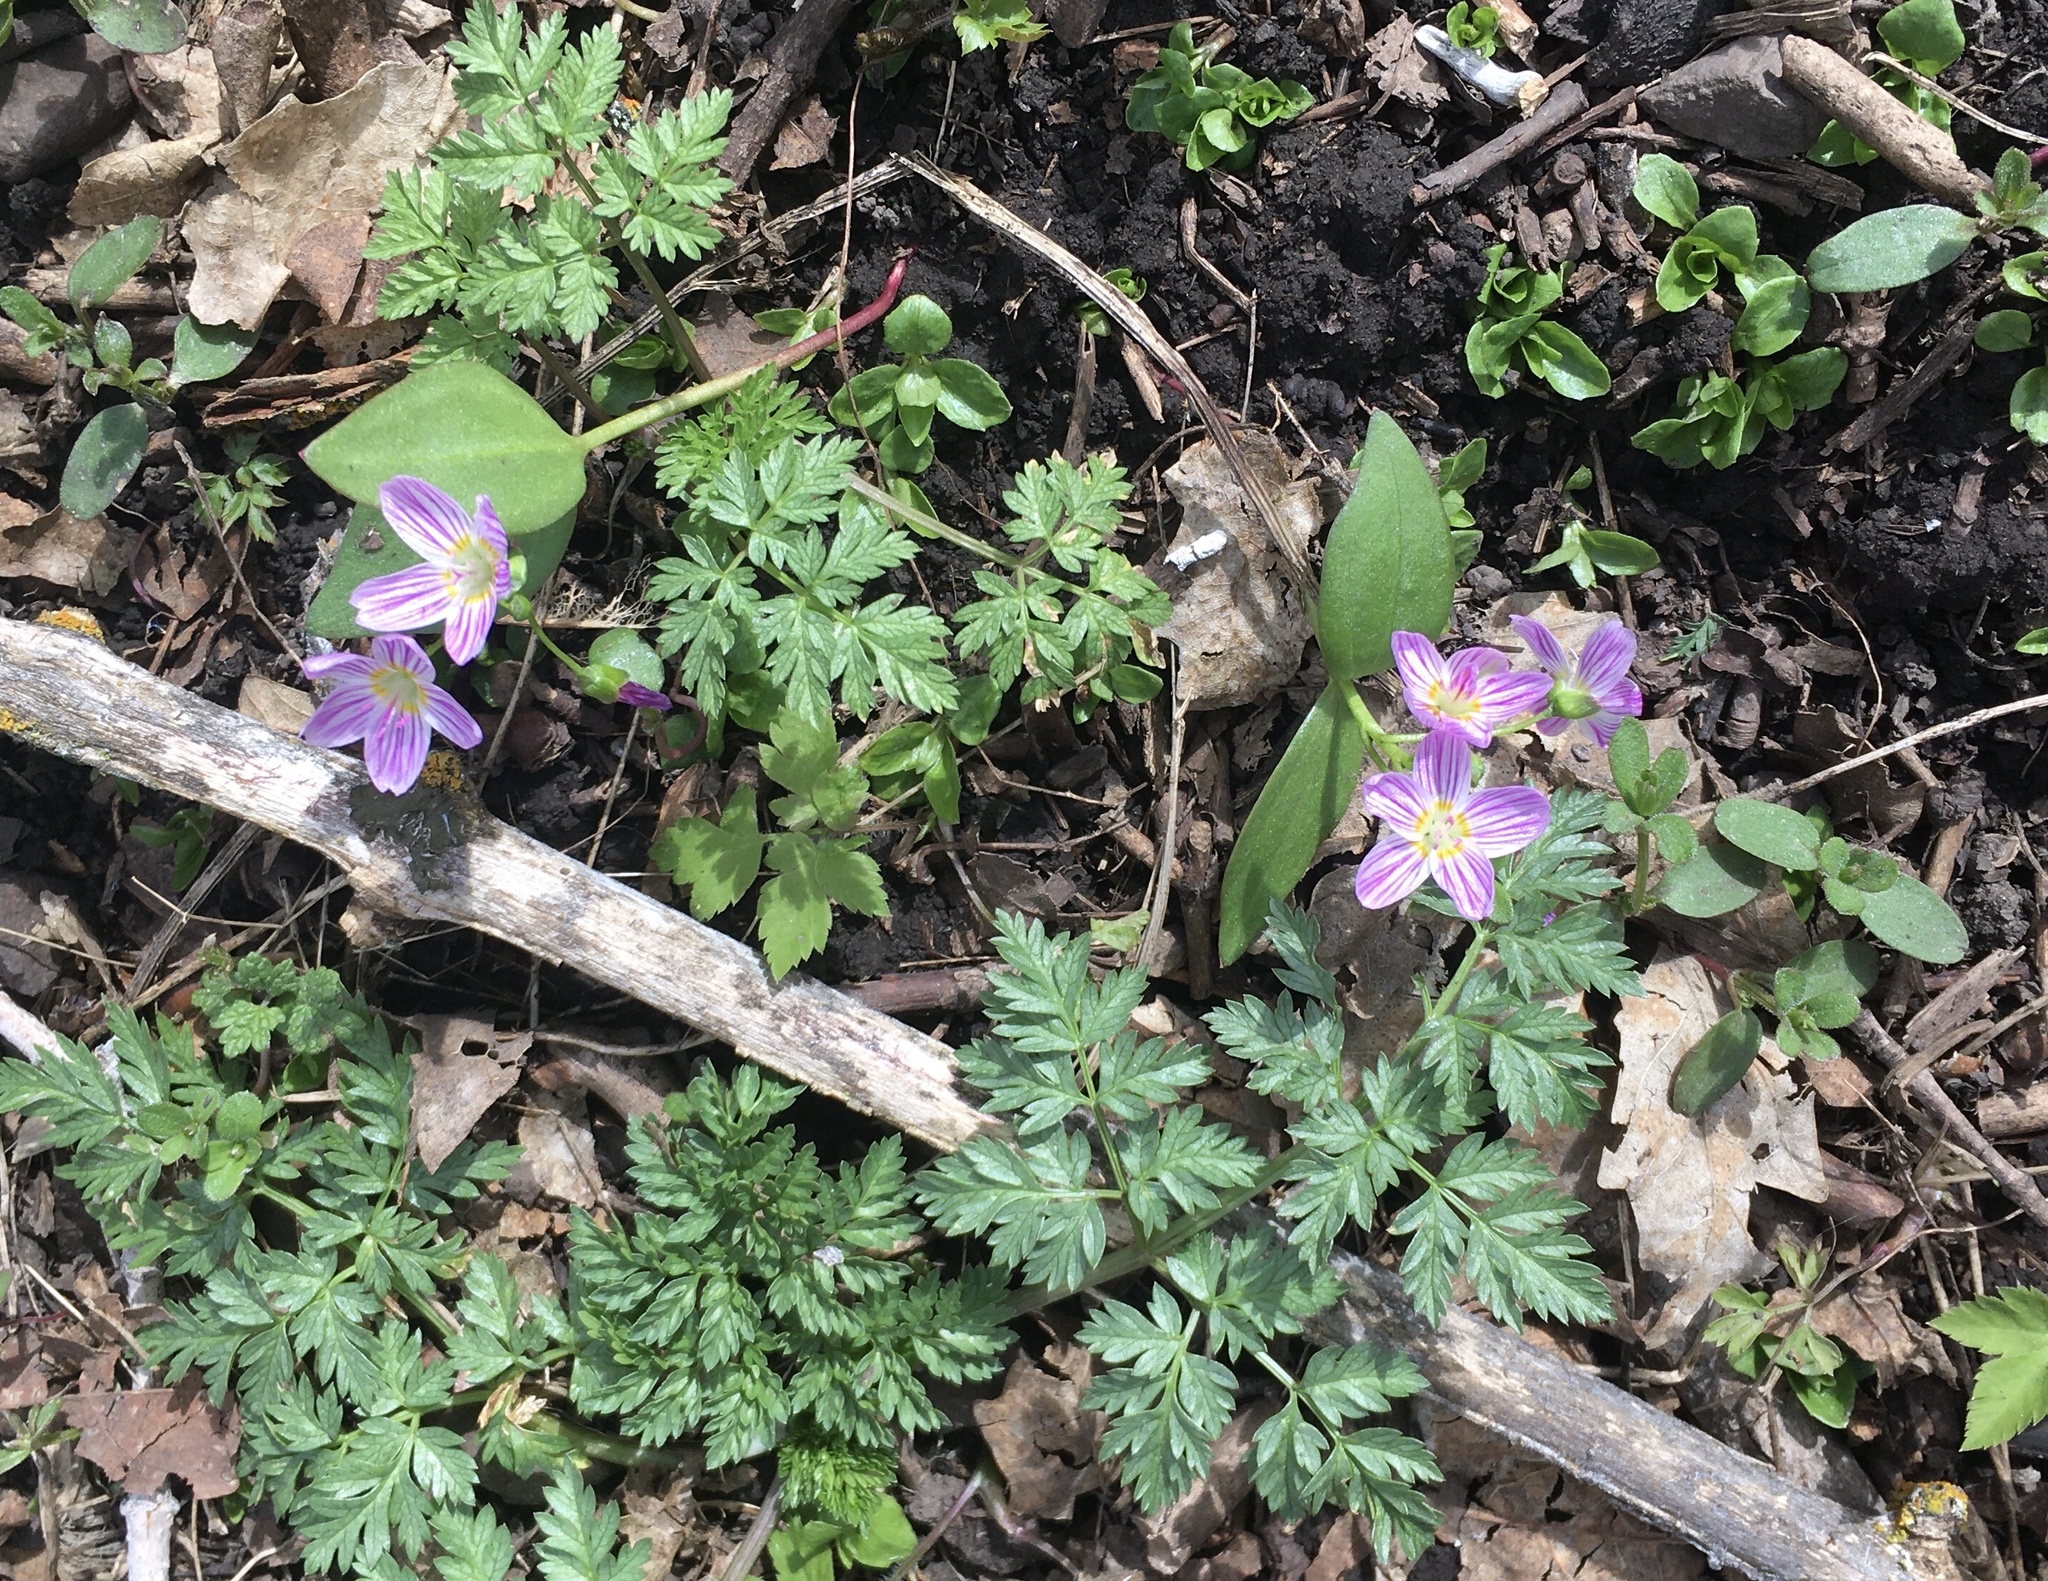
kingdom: Plantae
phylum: Tracheophyta
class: Magnoliopsida
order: Caryophyllales
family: Montiaceae
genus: Claytonia
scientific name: Claytonia lanceolata
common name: Western spring-beauty
